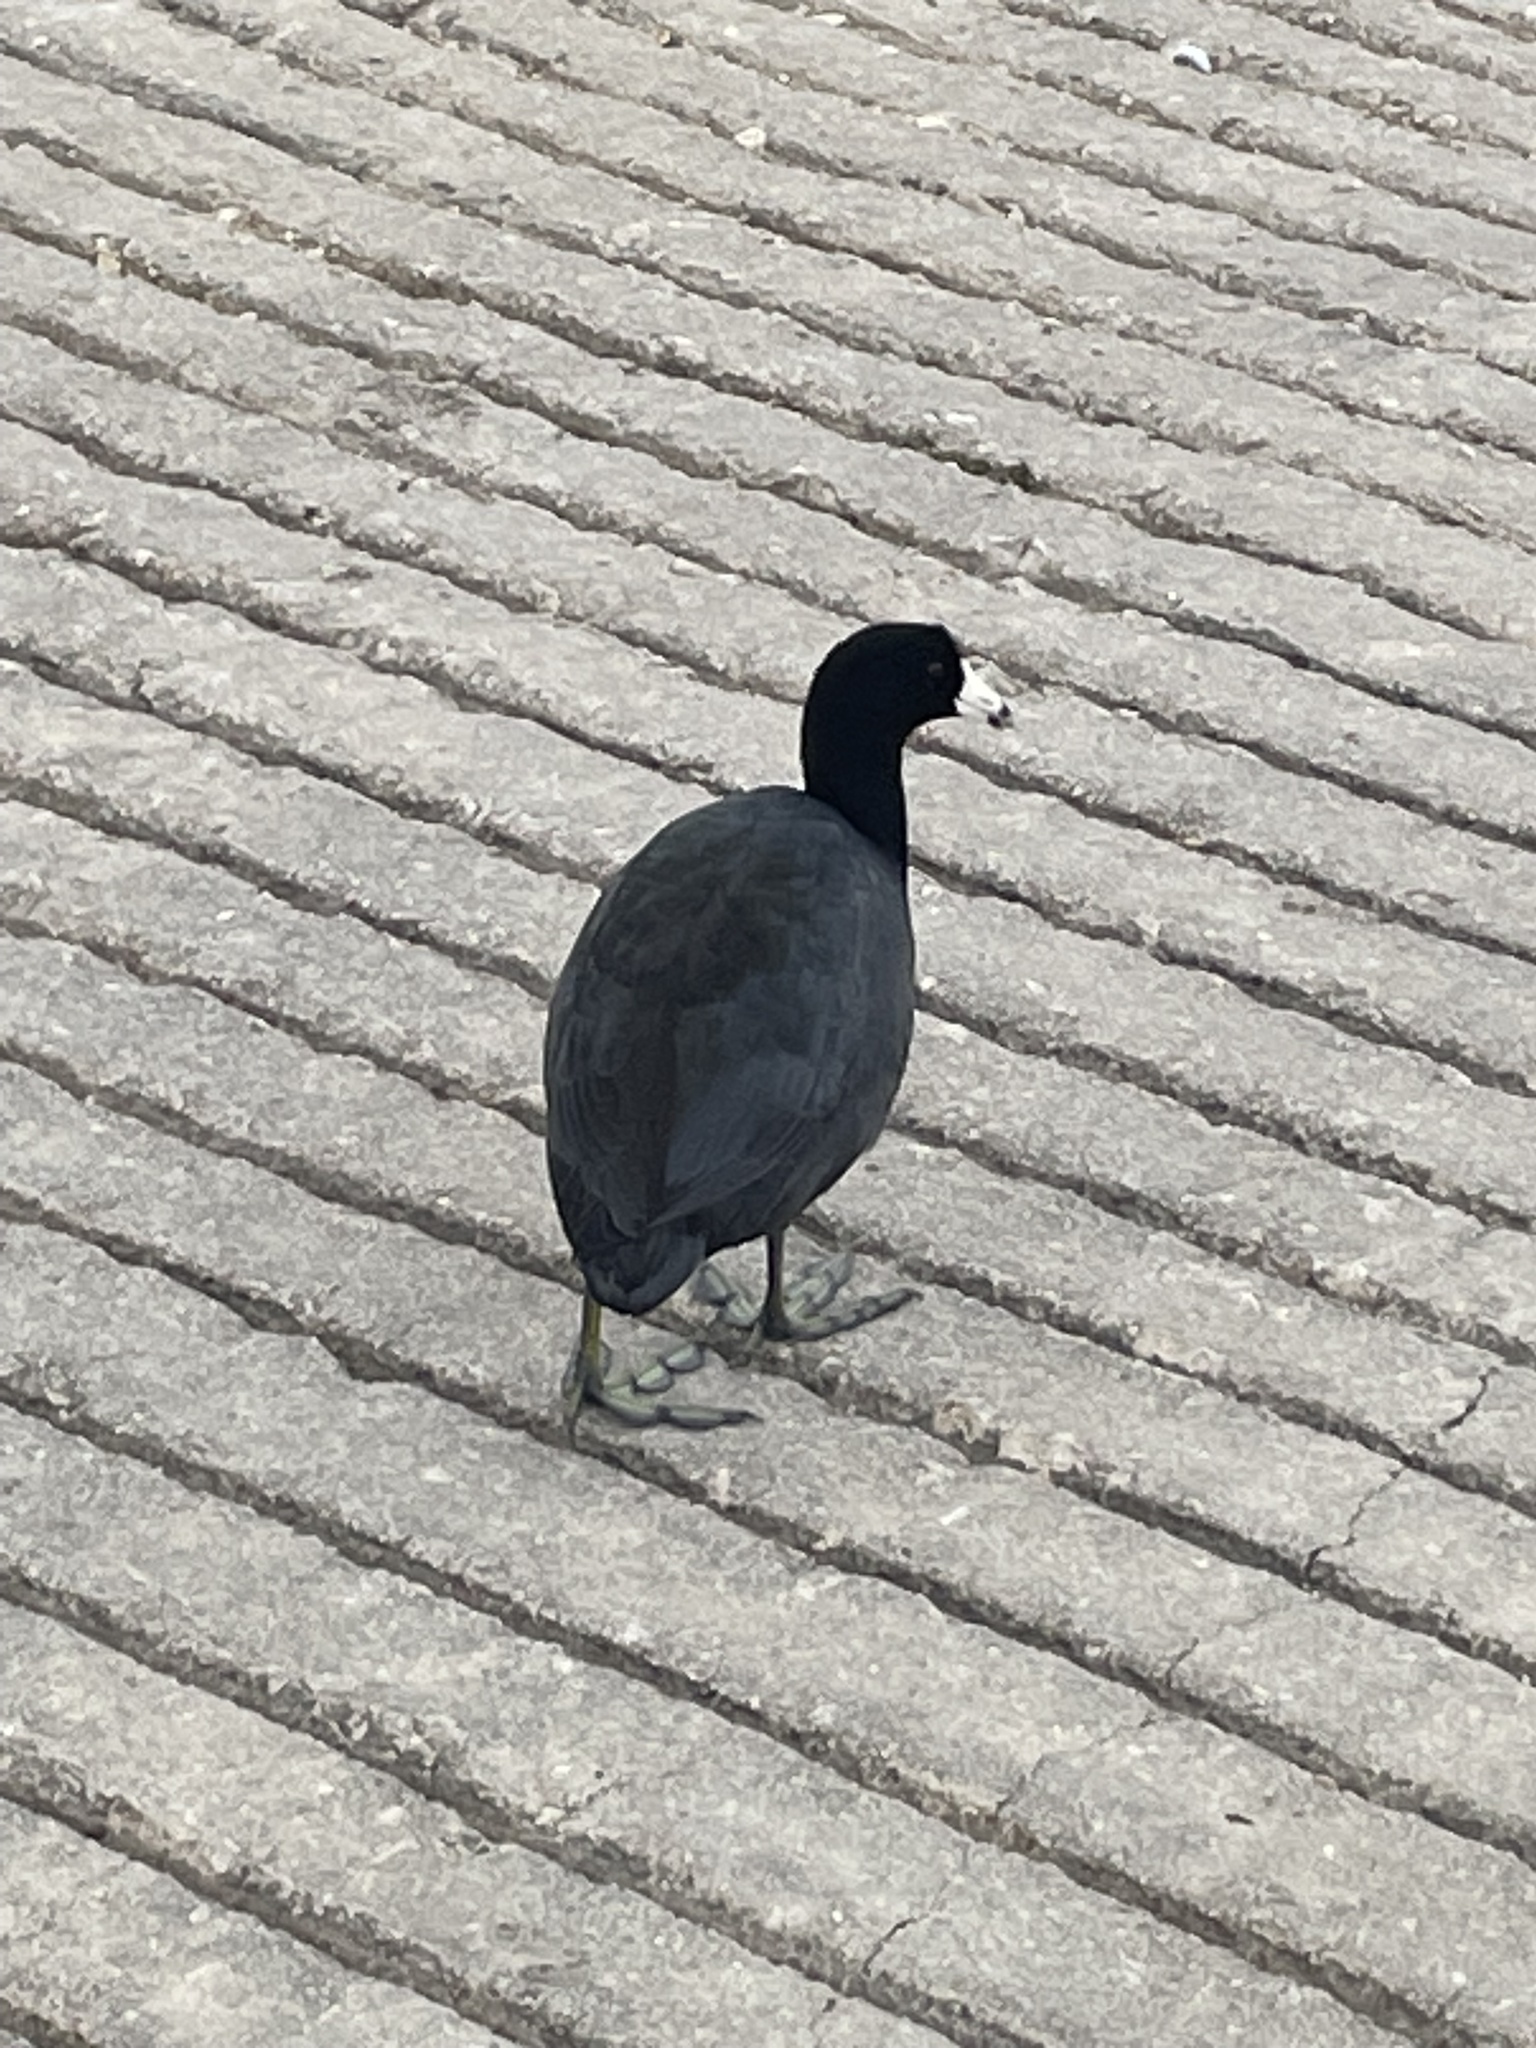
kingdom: Animalia
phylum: Chordata
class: Aves
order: Gruiformes
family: Rallidae
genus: Fulica
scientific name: Fulica americana
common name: American coot
